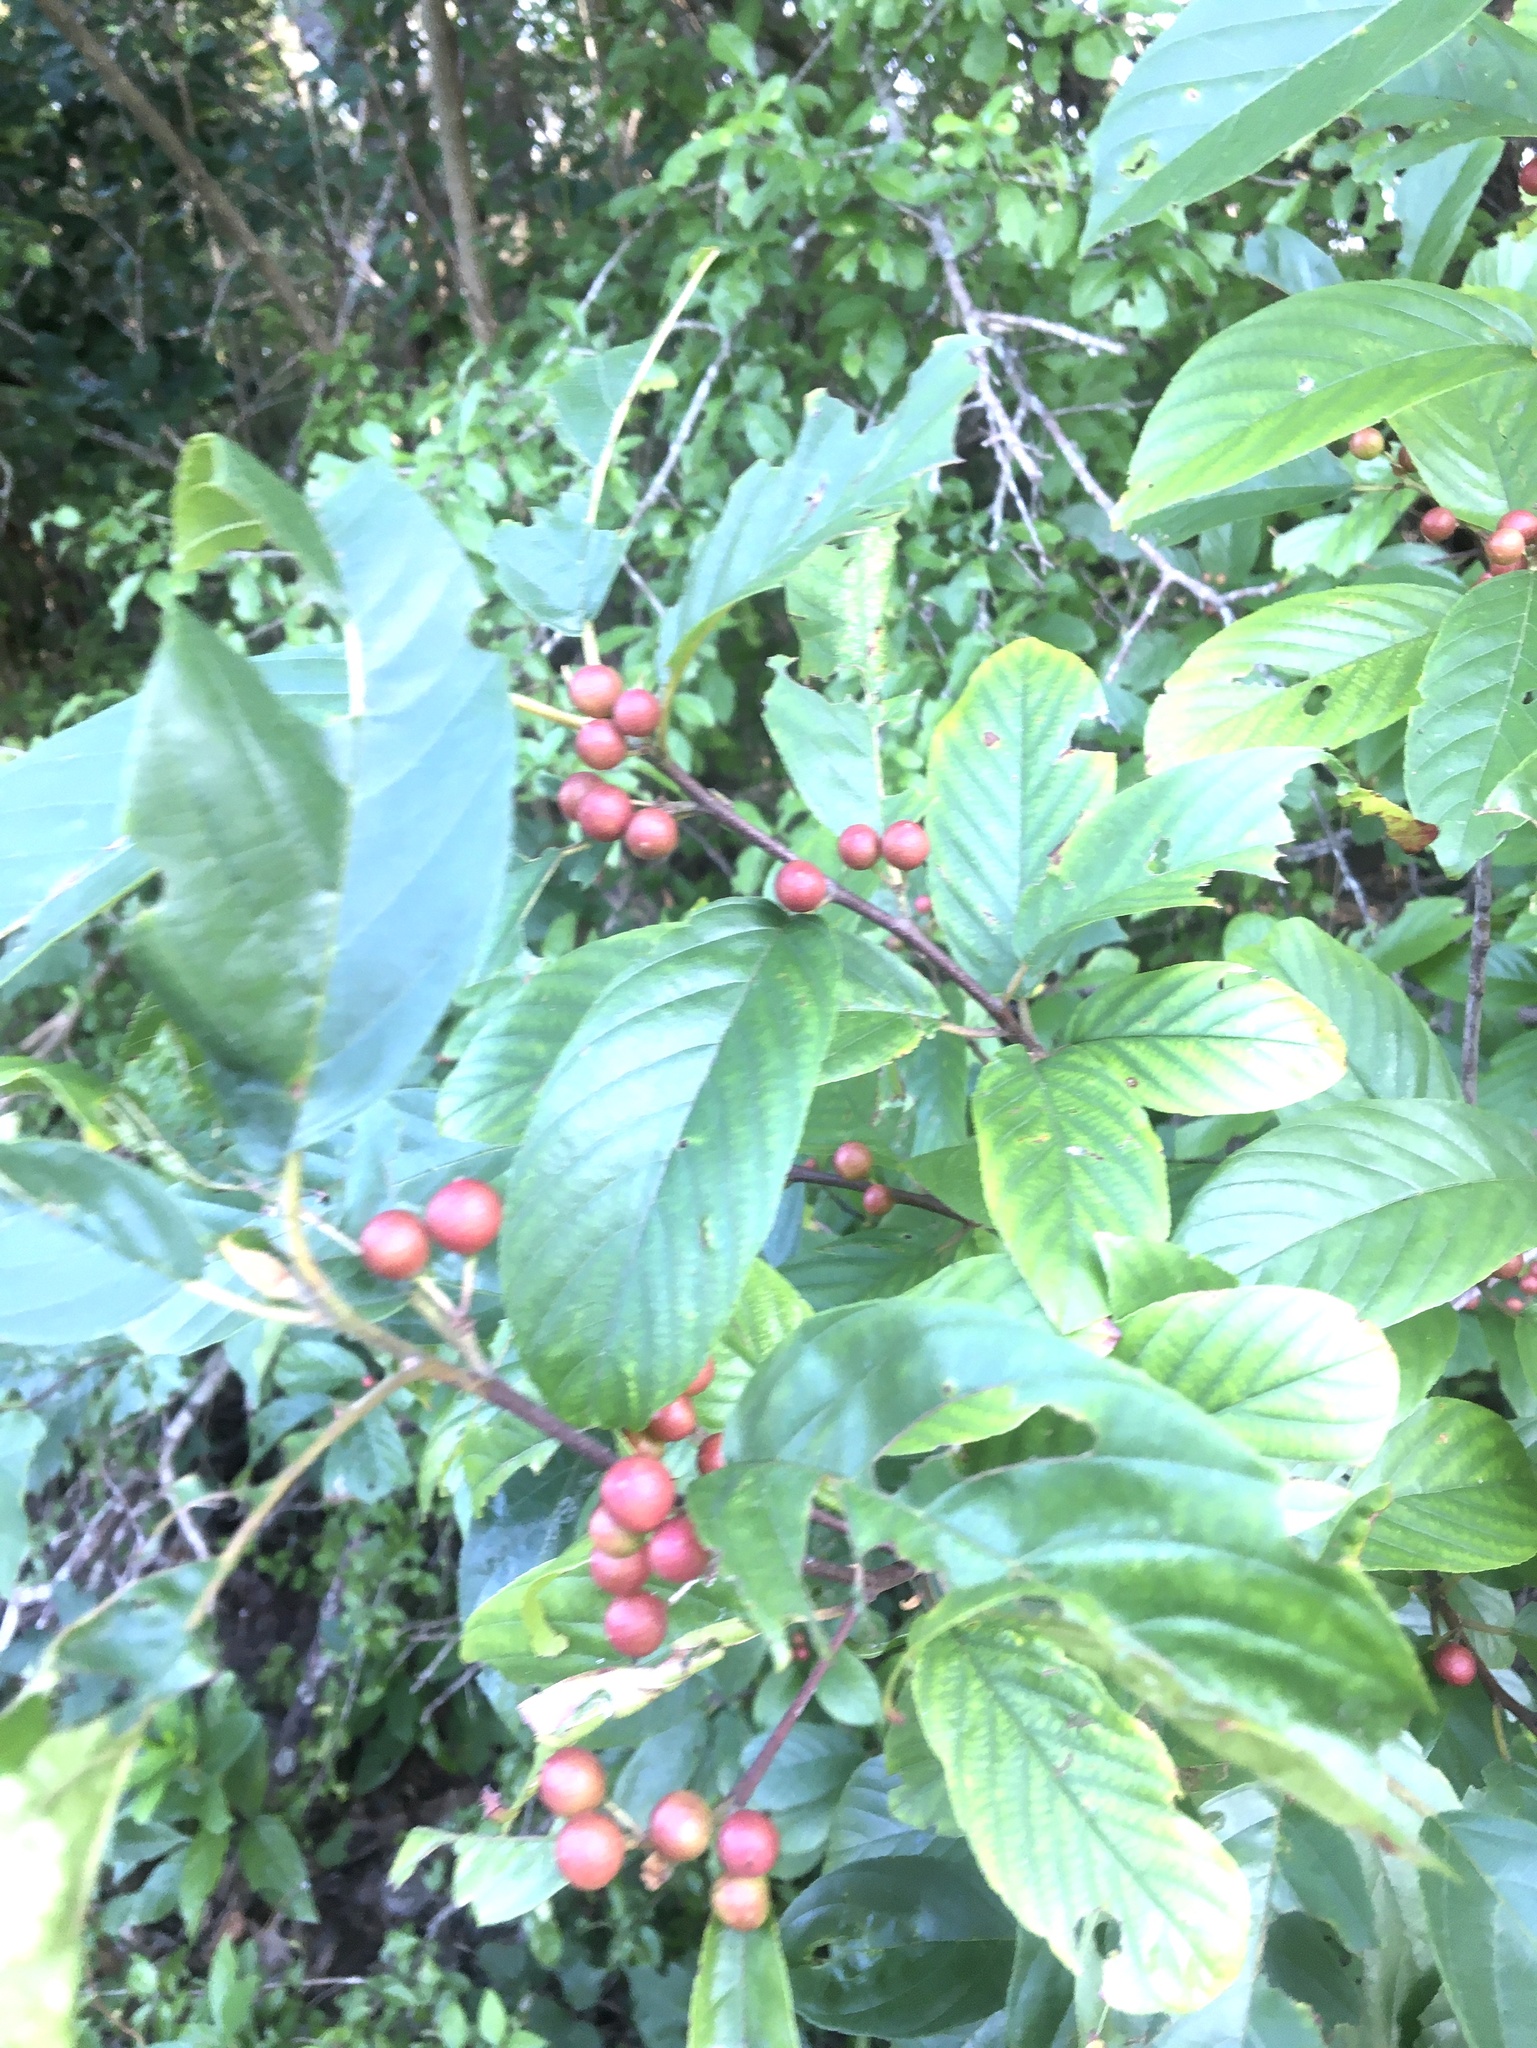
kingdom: Plantae
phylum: Tracheophyta
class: Magnoliopsida
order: Rosales
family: Rhamnaceae
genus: Frangula
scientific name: Frangula caroliniana
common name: Carolina buckthorn
